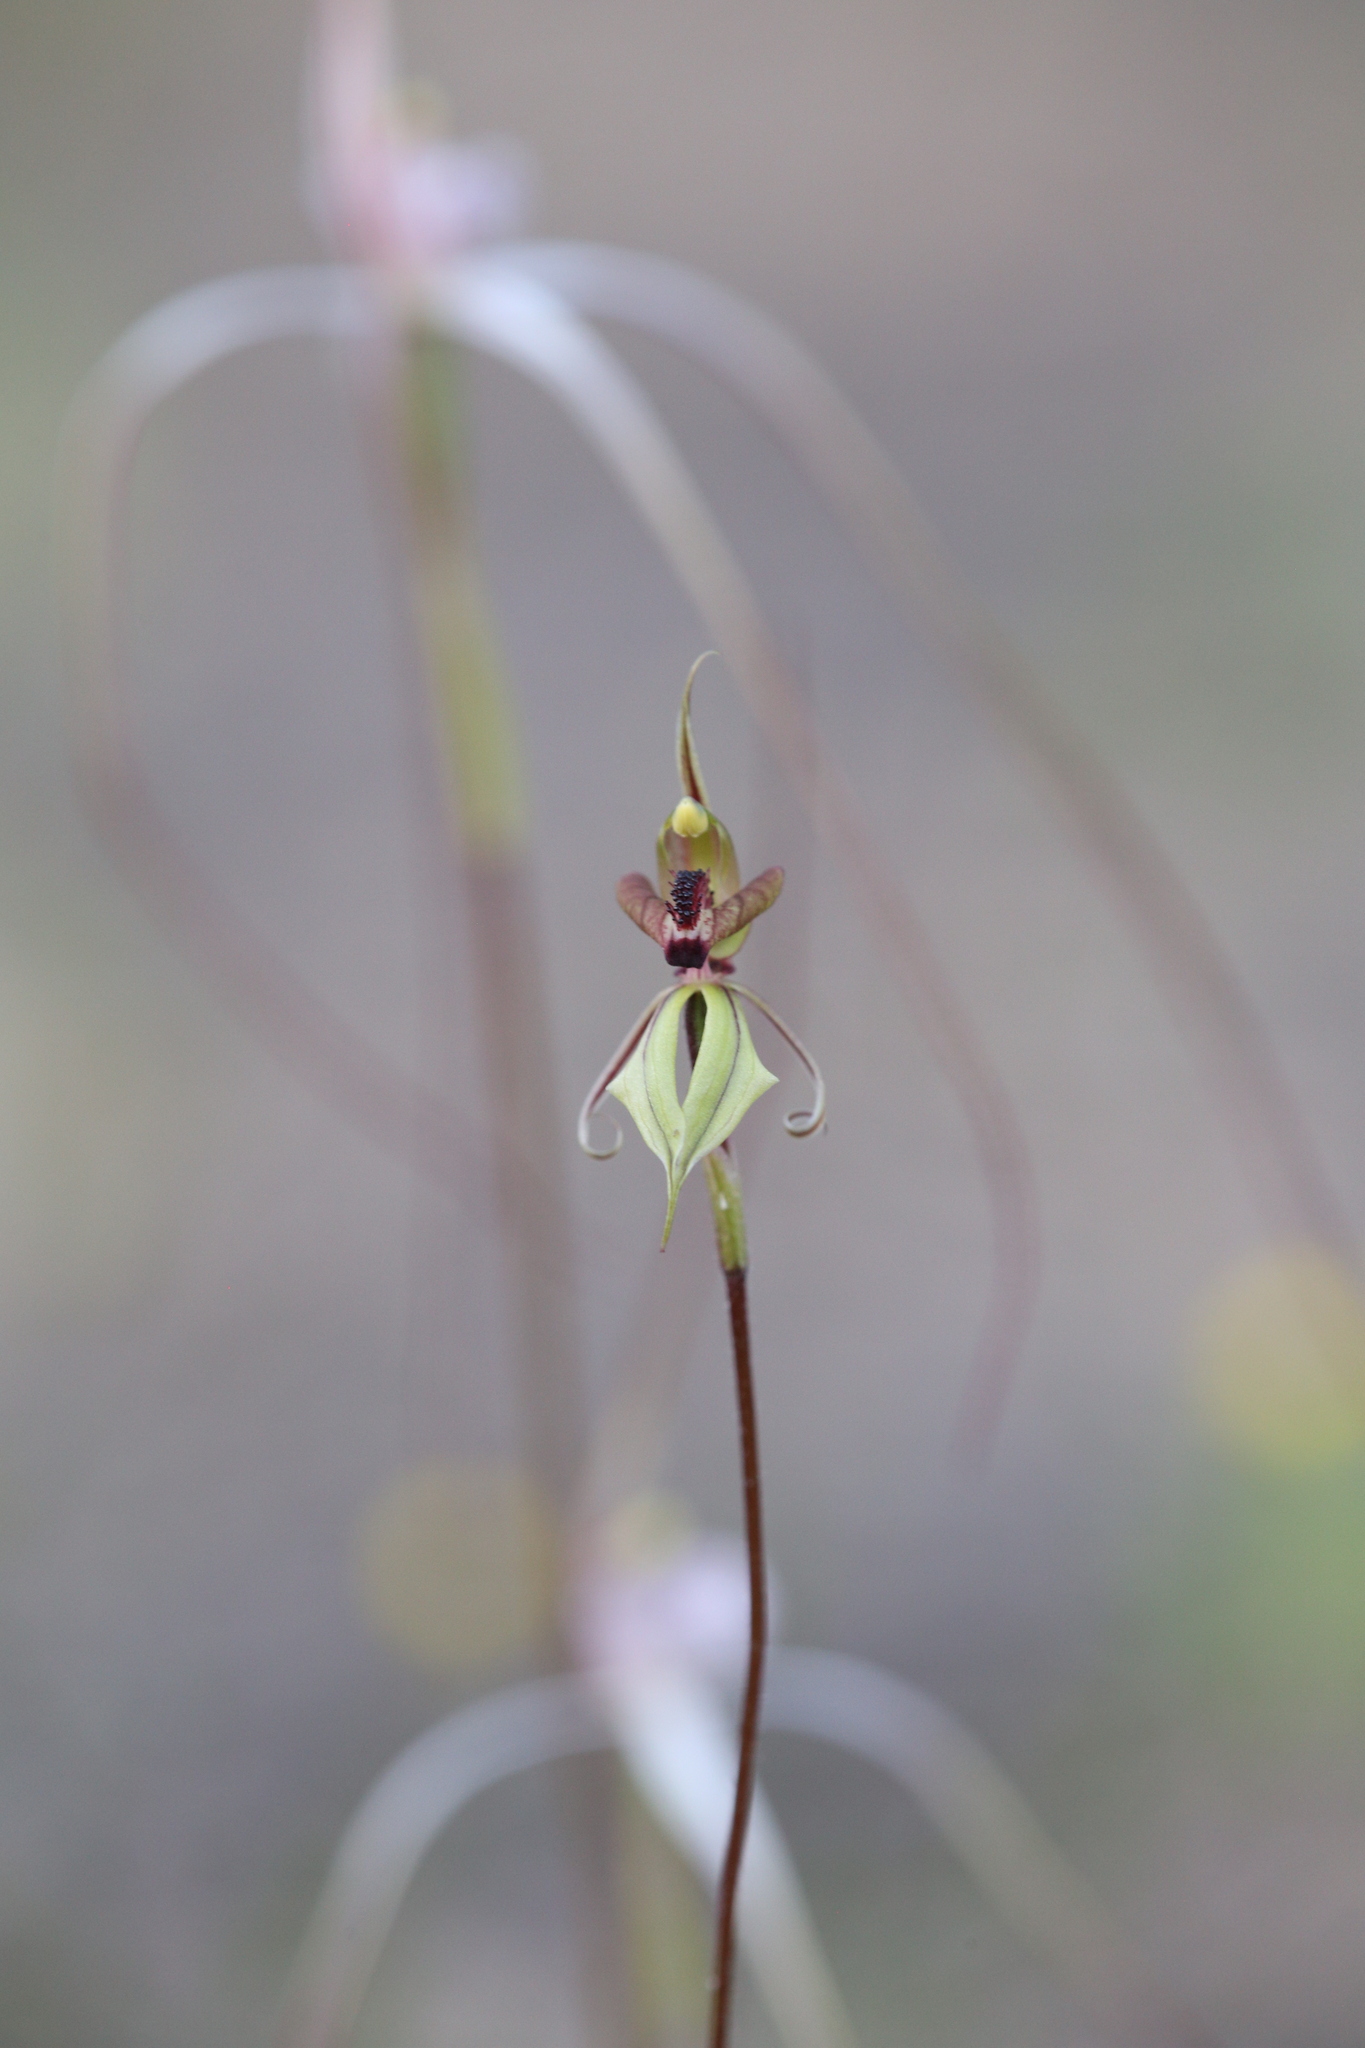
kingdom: Plantae
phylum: Tracheophyta
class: Liliopsida
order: Asparagales
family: Orchidaceae
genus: Caladenia
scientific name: Caladenia cristata
